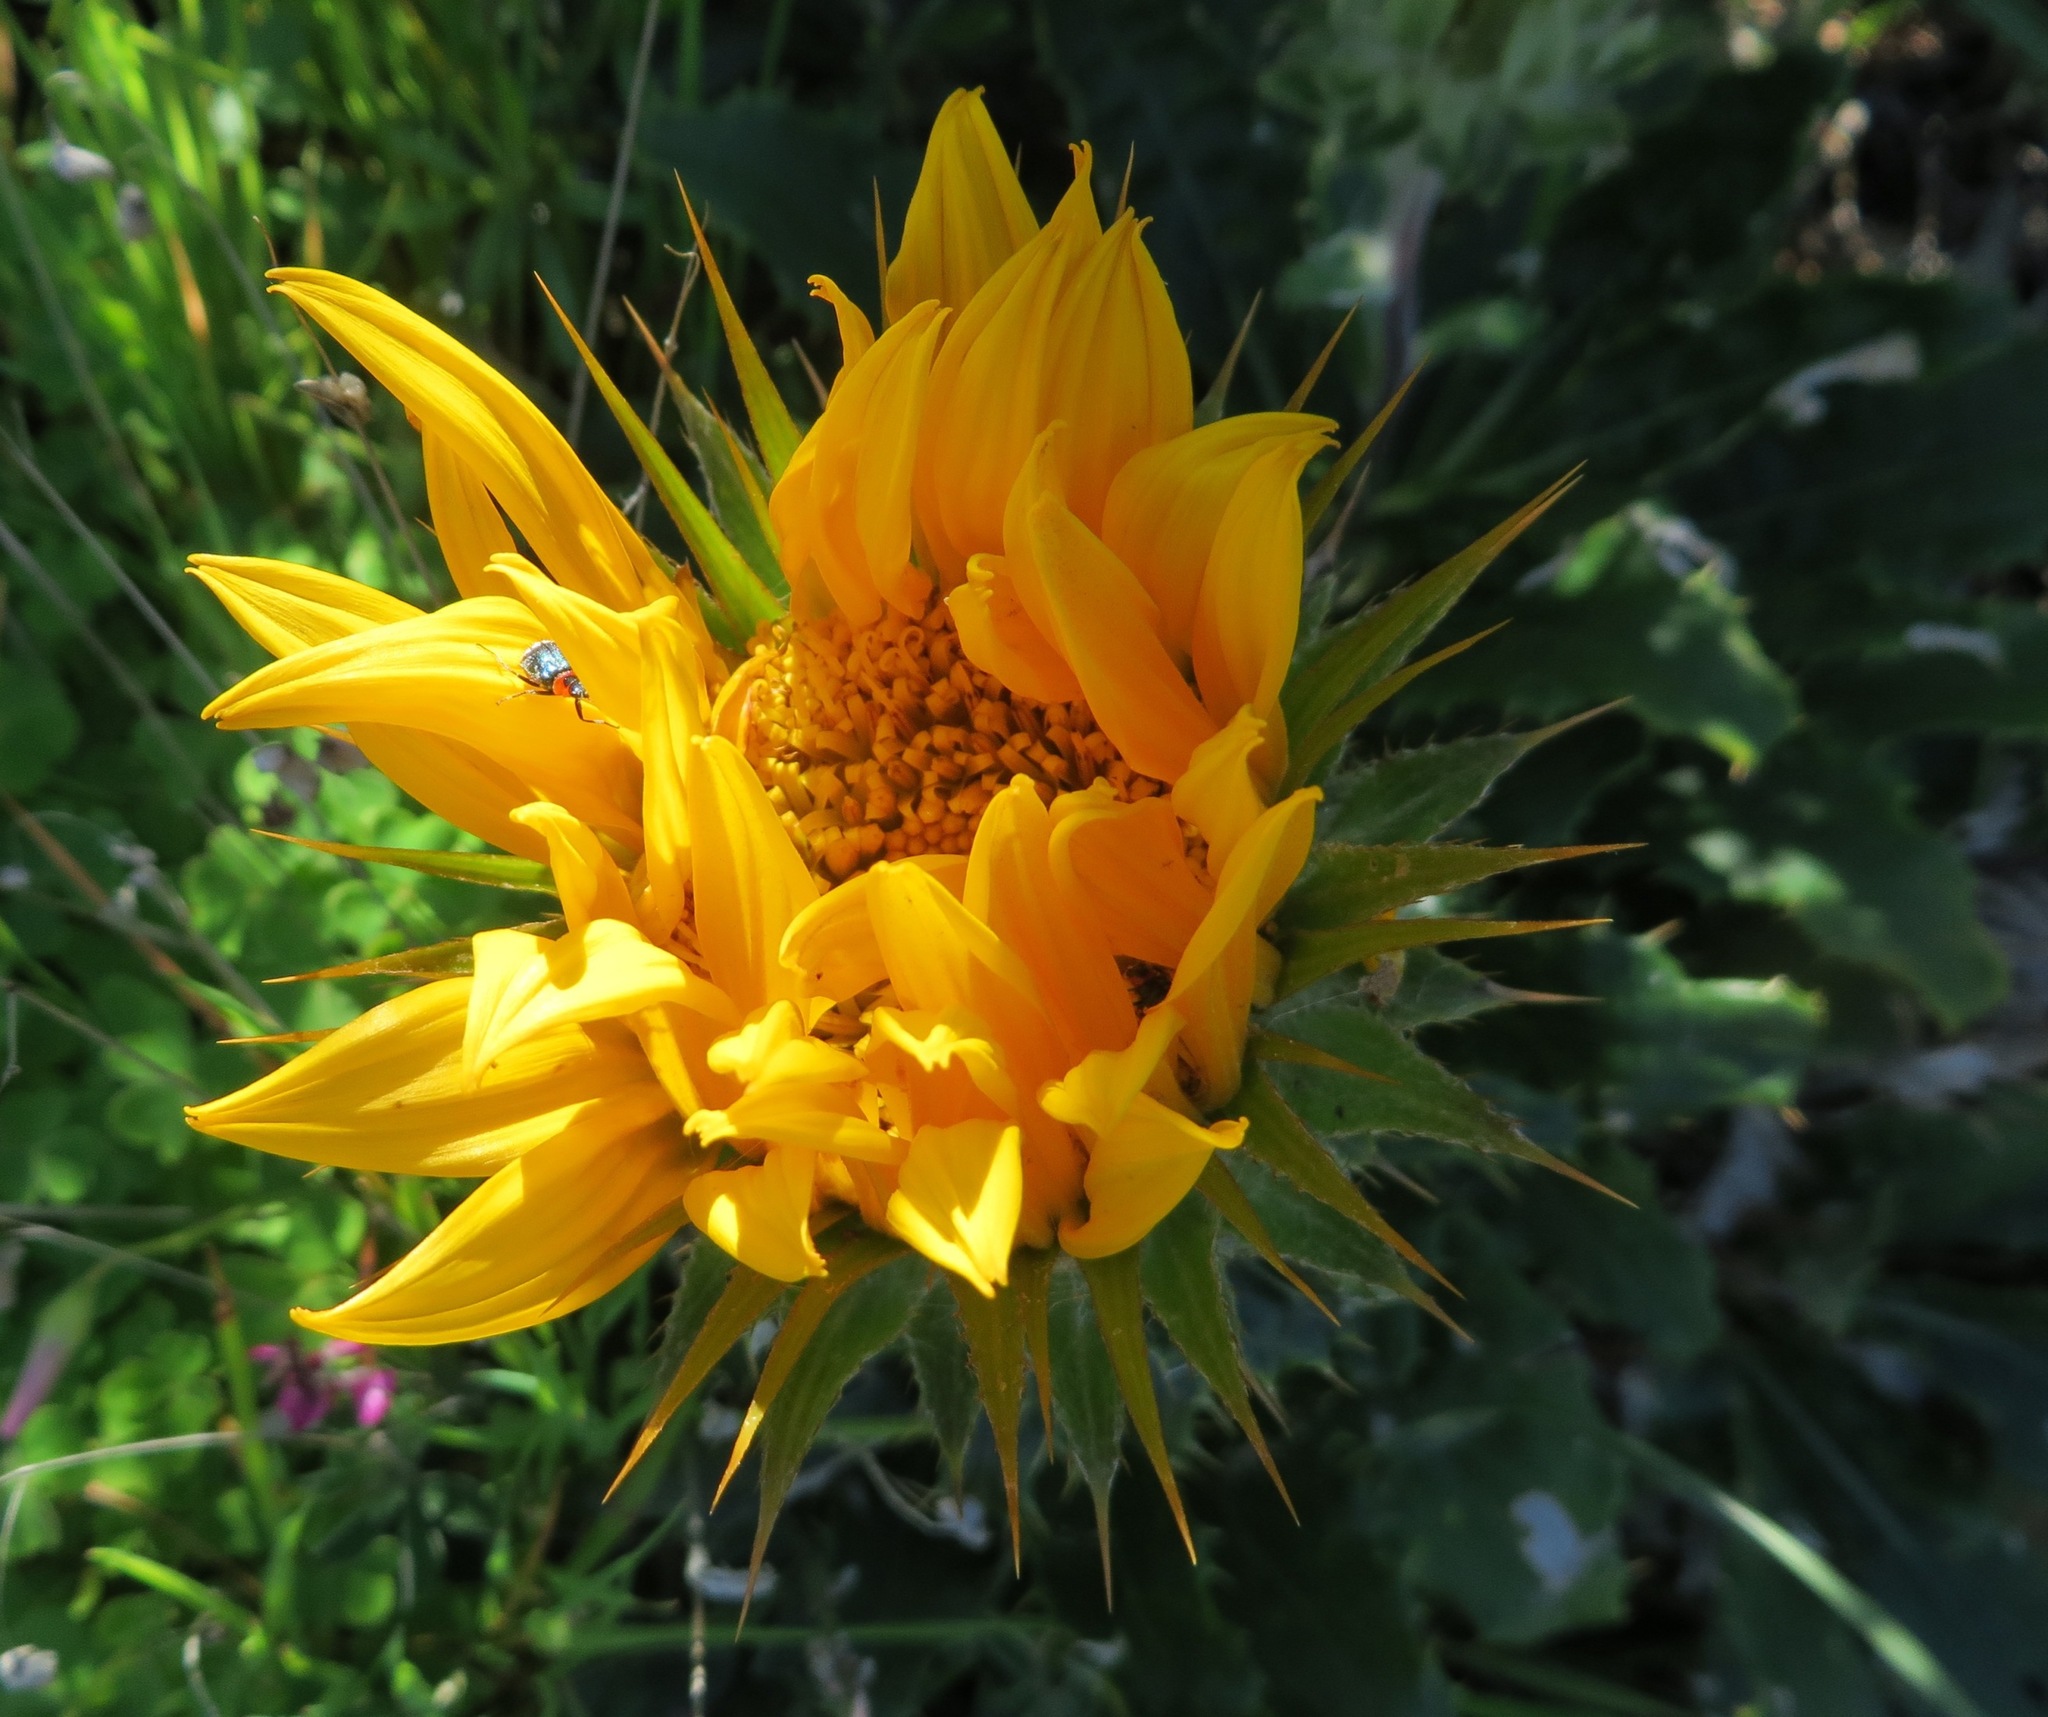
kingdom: Plantae
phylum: Tracheophyta
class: Magnoliopsida
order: Asterales
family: Asteraceae
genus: Berkheya
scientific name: Berkheya armata
